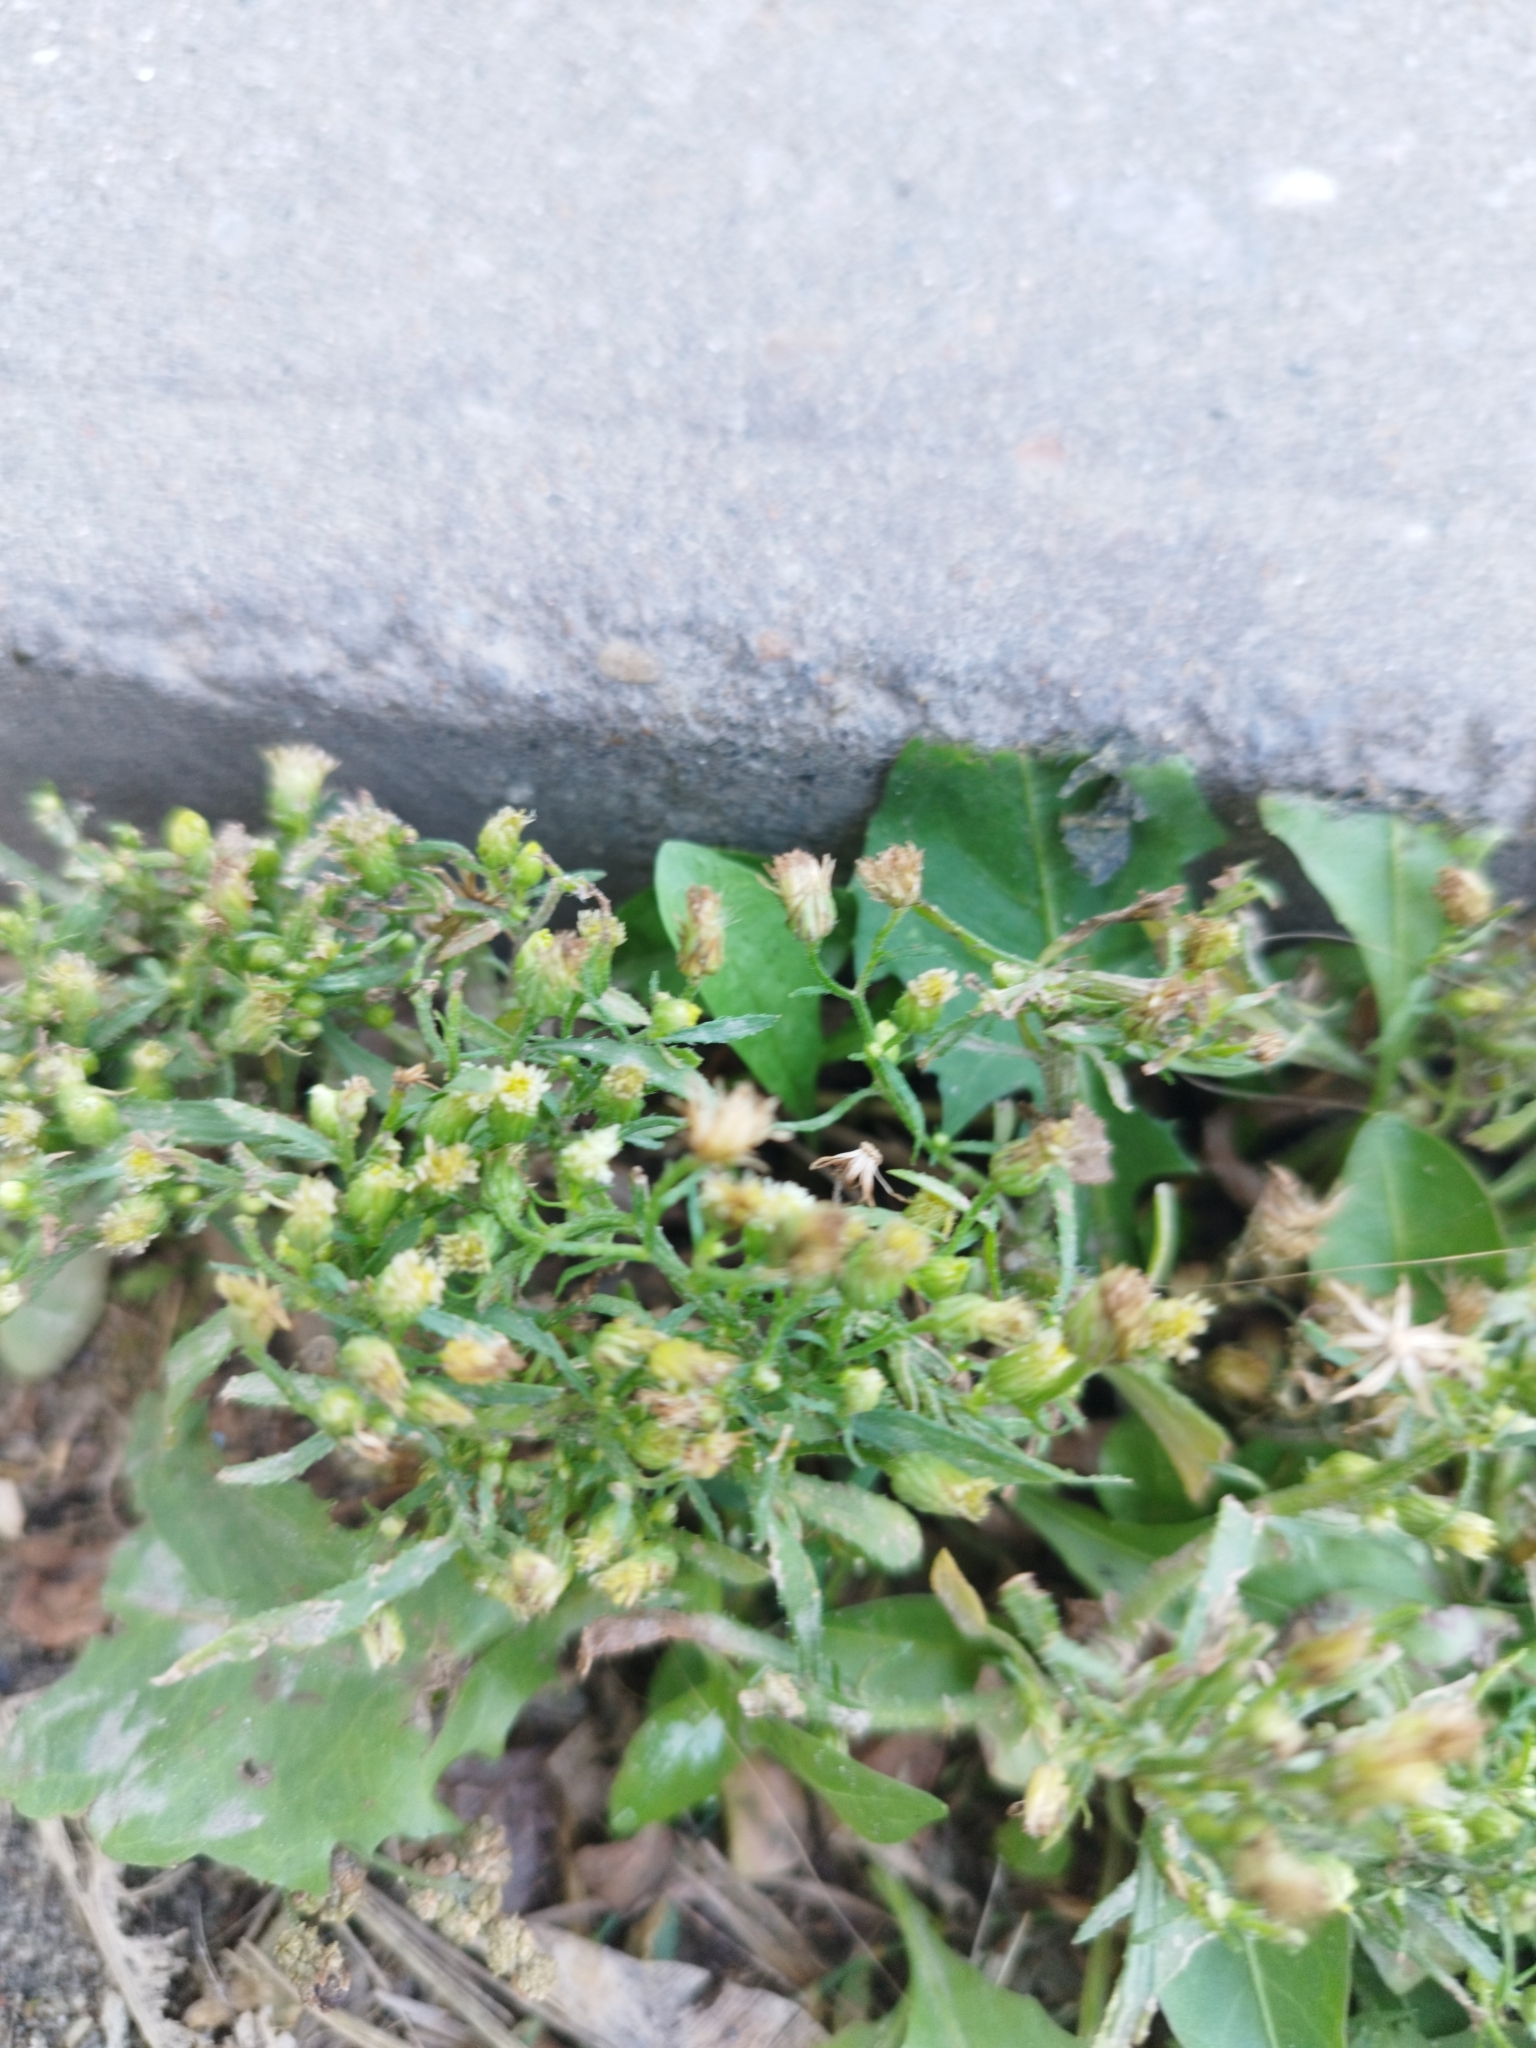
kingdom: Plantae
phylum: Tracheophyta
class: Magnoliopsida
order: Asterales
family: Asteraceae
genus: Erigeron
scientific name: Erigeron canadensis
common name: Canadian fleabane
